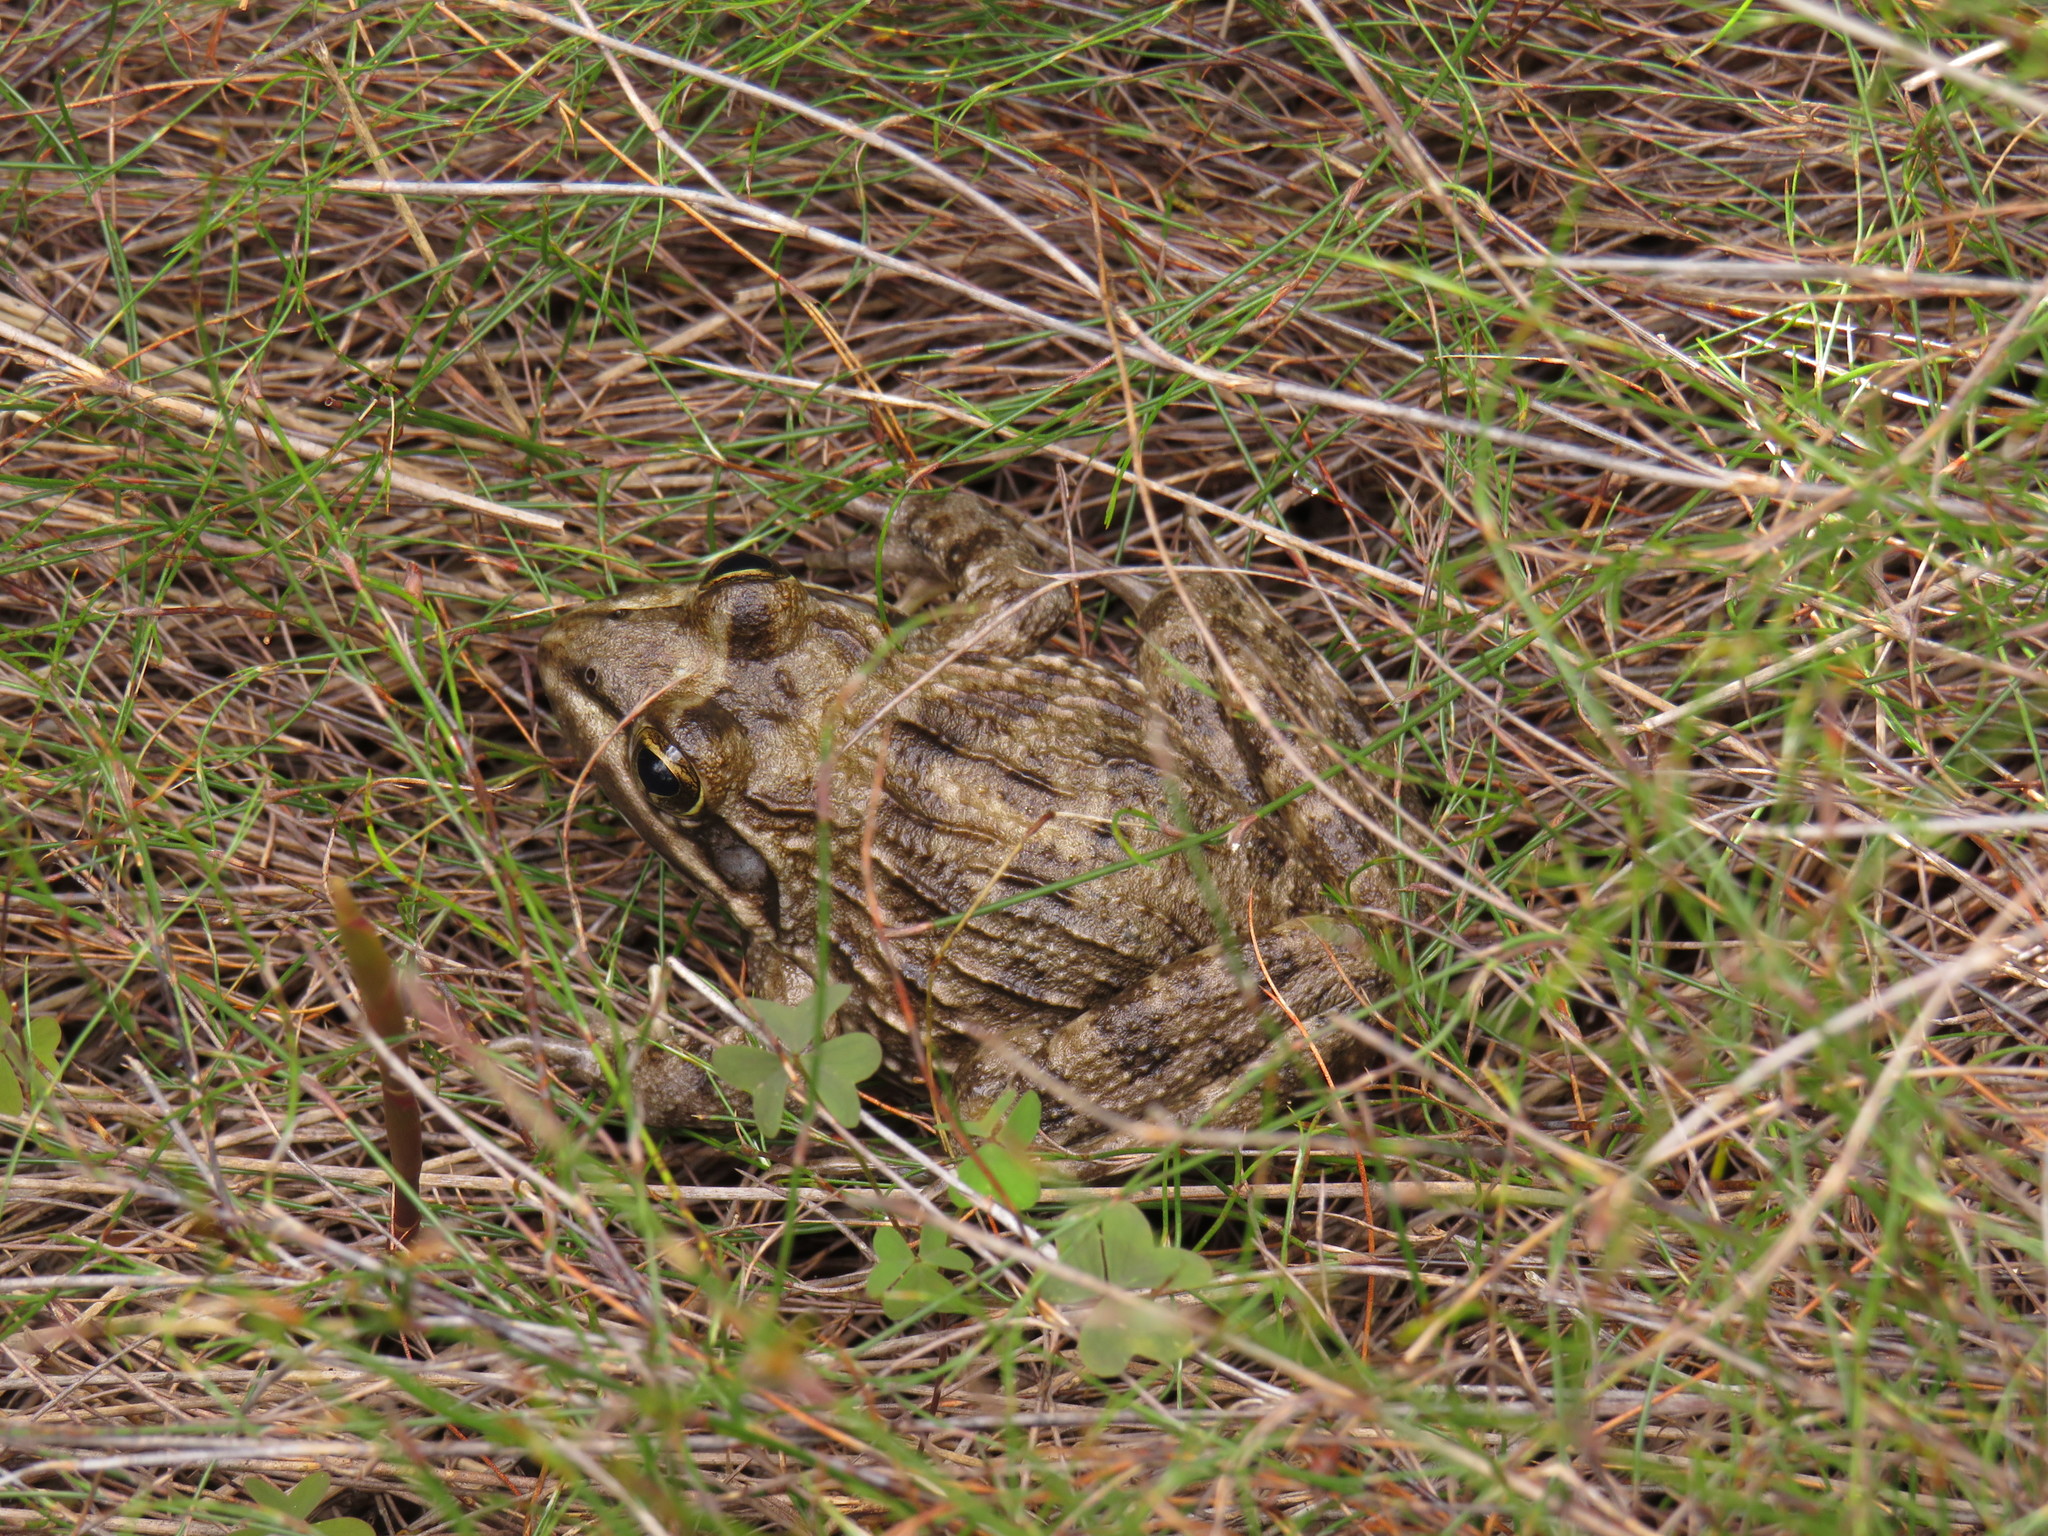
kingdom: Animalia
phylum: Chordata
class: Amphibia
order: Anura
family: Pyxicephalidae
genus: Amietia
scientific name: Amietia fuscigula
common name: Cape rana
